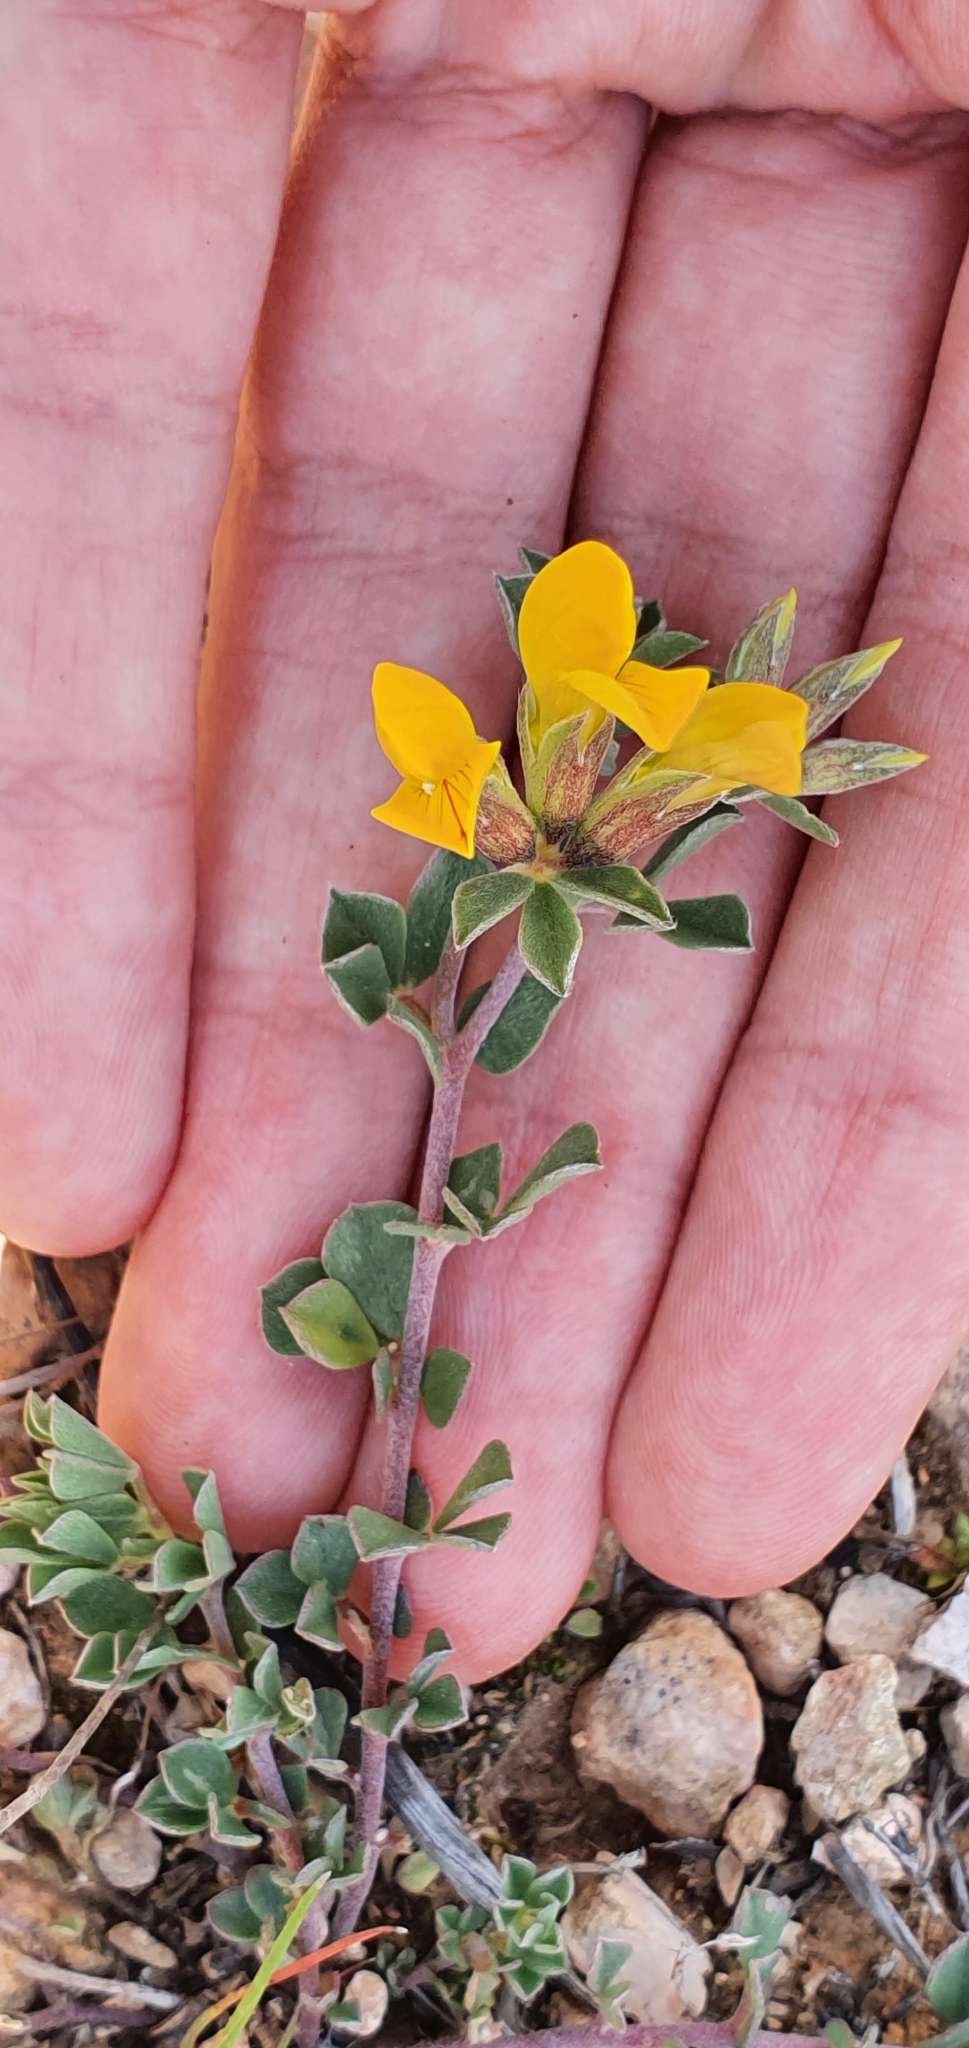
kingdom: Plantae
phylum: Tracheophyta
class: Magnoliopsida
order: Fabales
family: Fabaceae
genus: Lotus
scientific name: Lotus longisiliquosus
